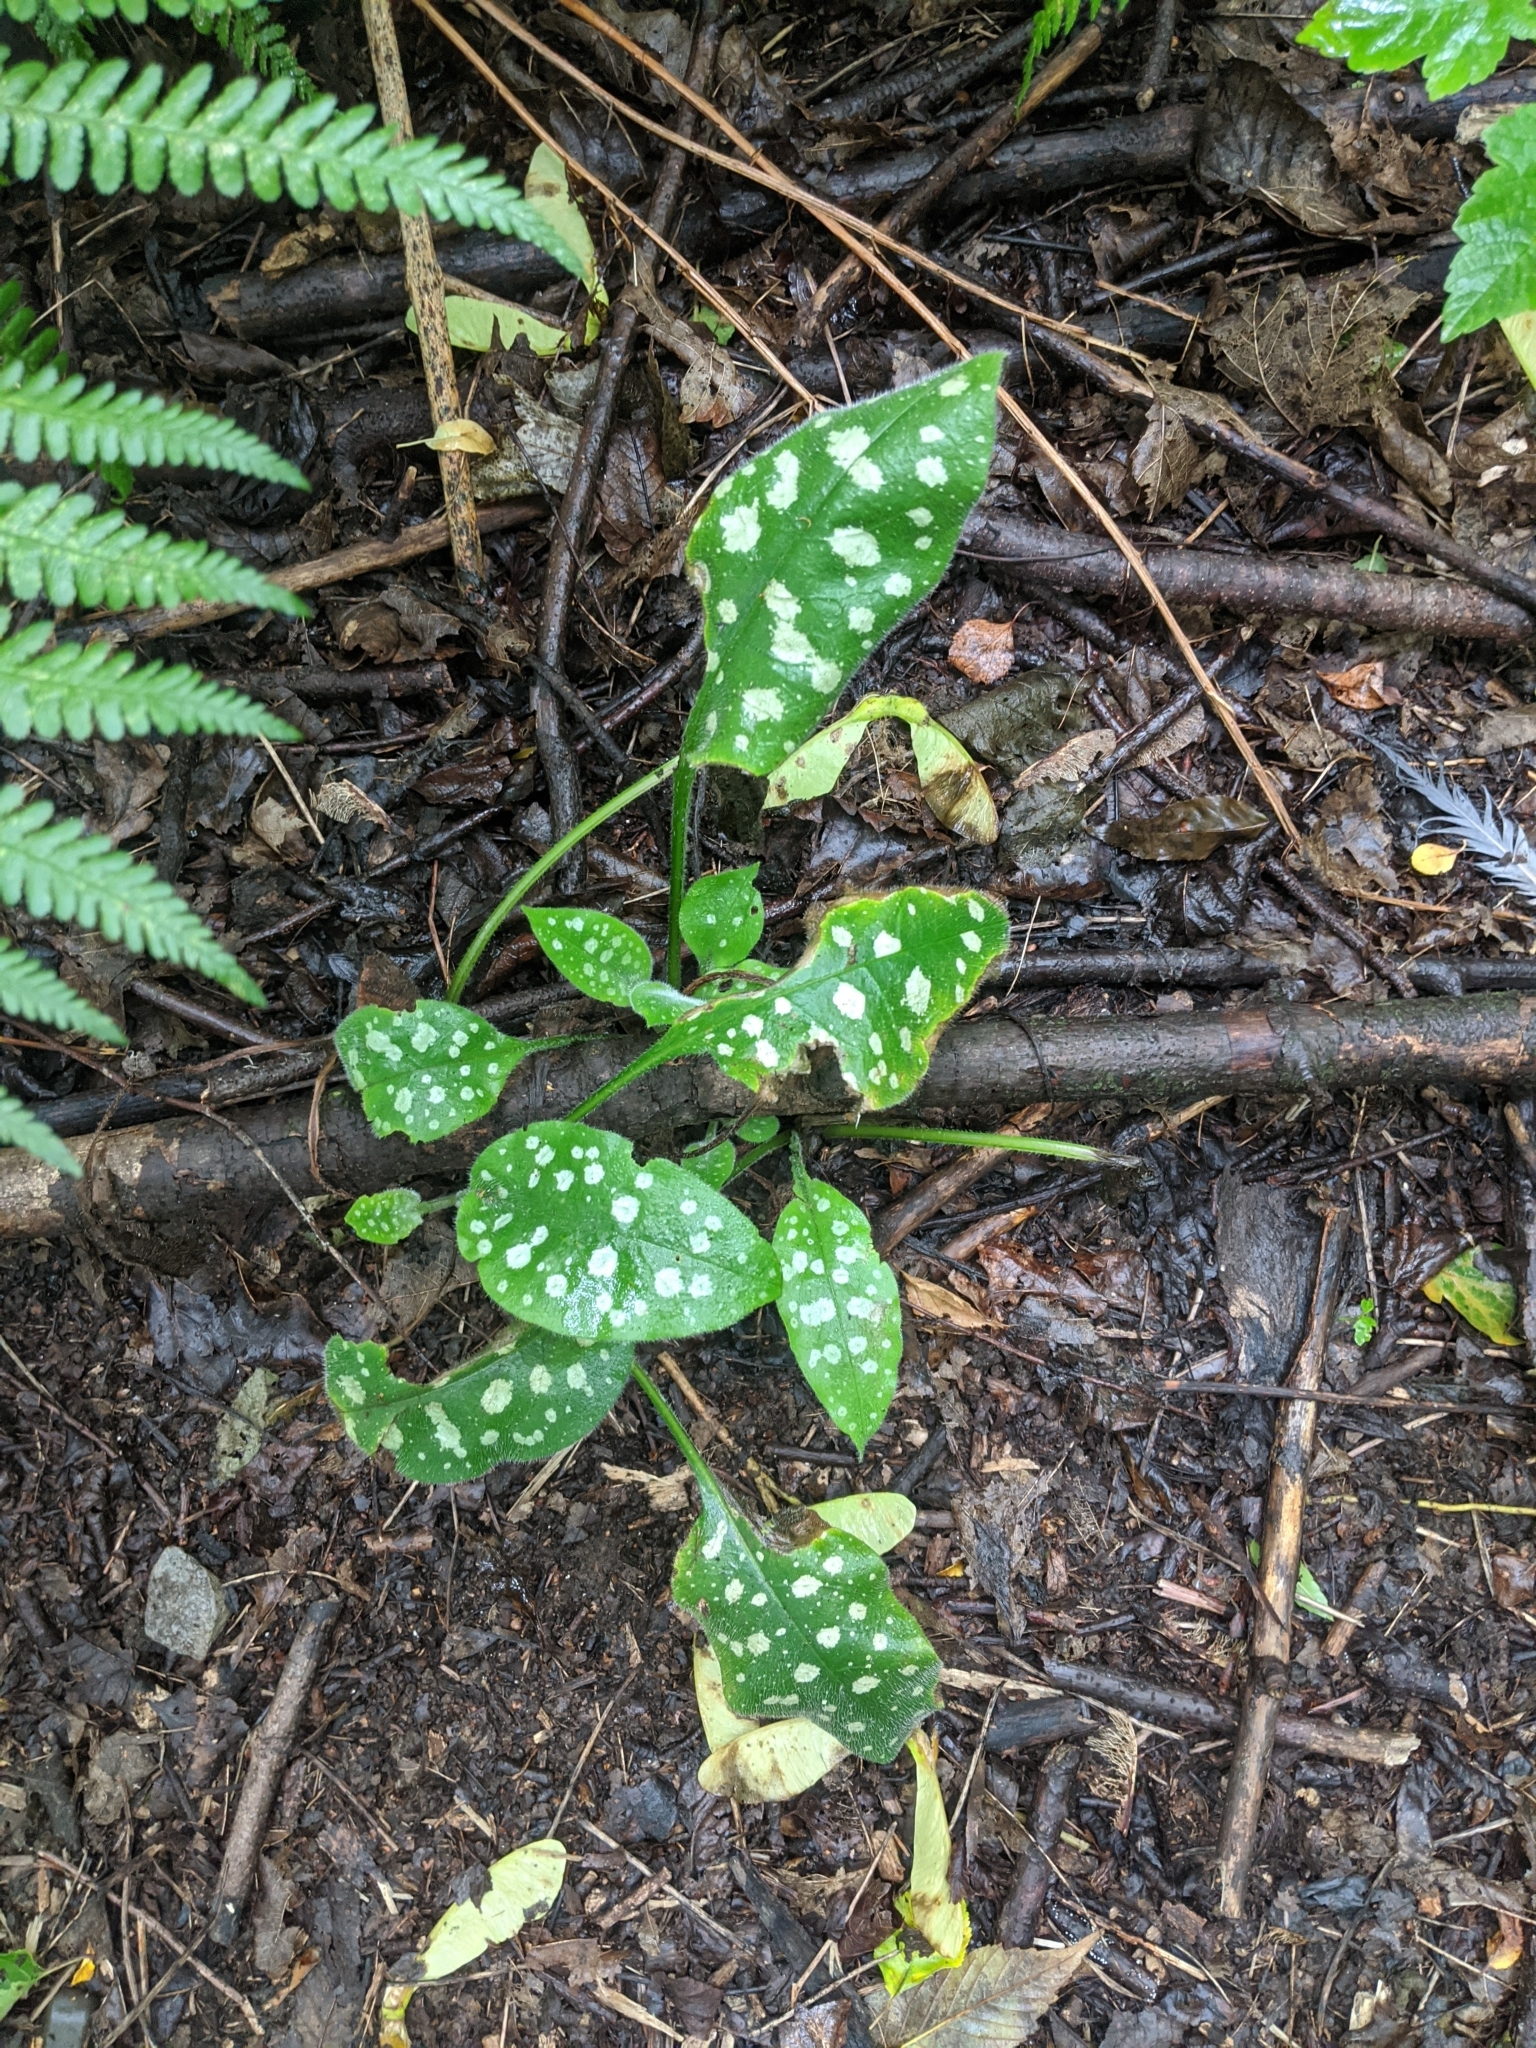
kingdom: Plantae
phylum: Tracheophyta
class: Magnoliopsida
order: Boraginales
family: Boraginaceae
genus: Pulmonaria
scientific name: Pulmonaria officinalis
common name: Lungwort
